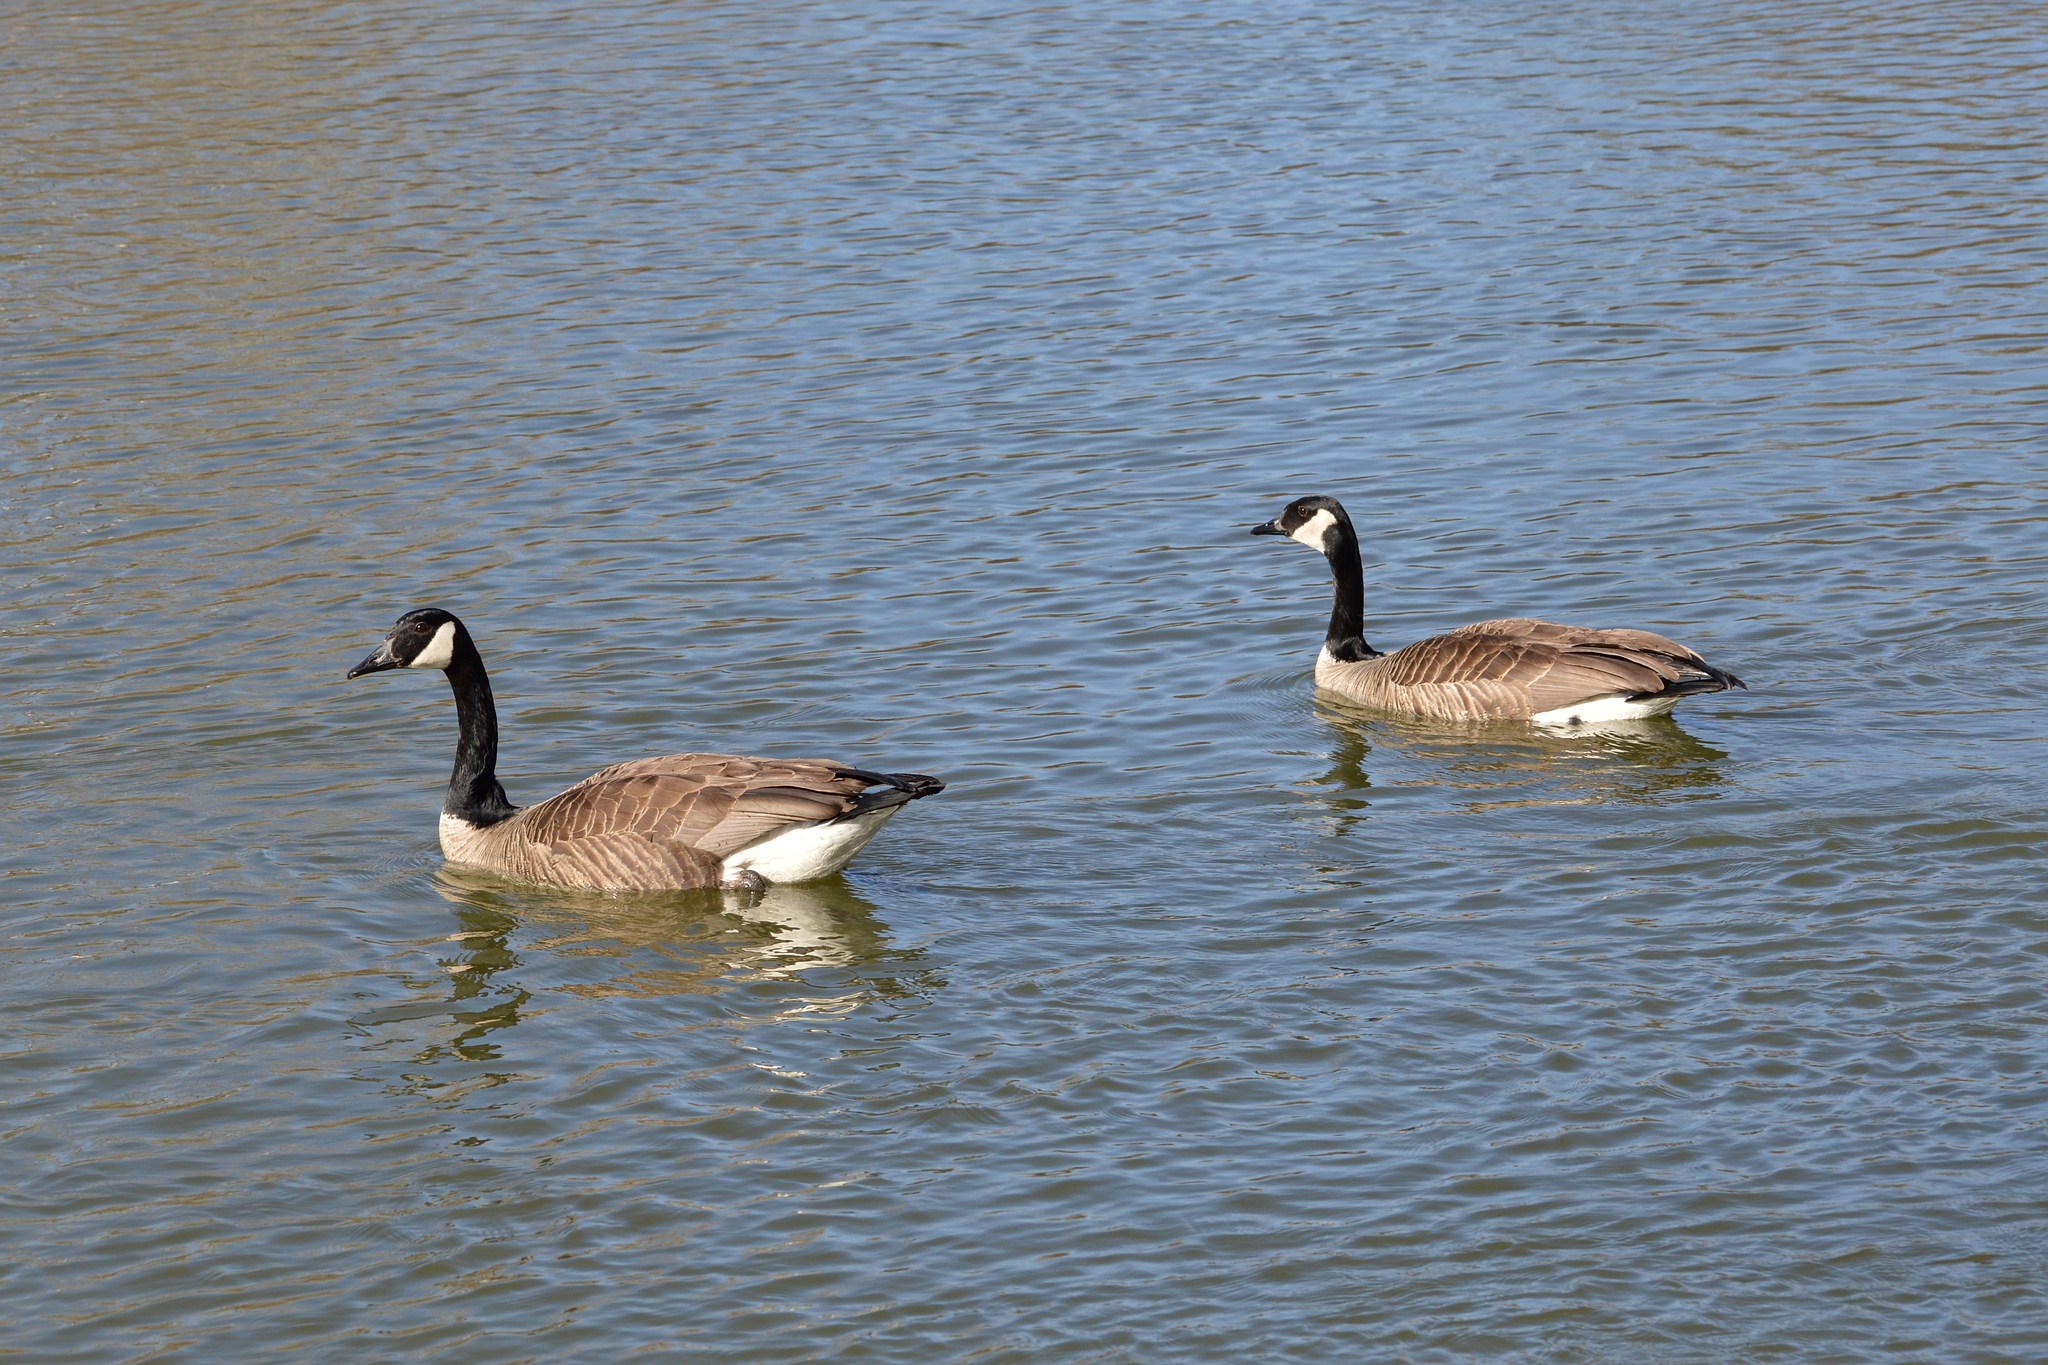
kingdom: Animalia
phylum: Chordata
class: Aves
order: Anseriformes
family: Anatidae
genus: Branta
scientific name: Branta canadensis
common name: Canada goose
